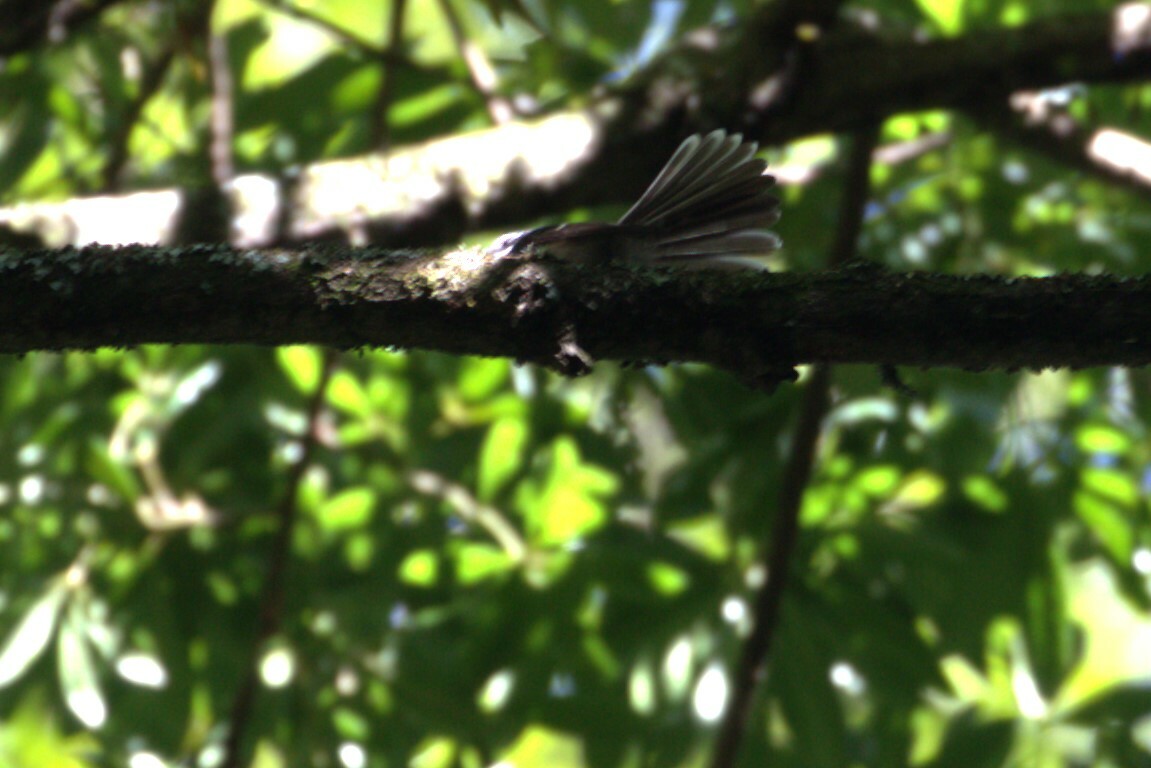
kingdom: Animalia
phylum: Chordata
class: Aves
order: Passeriformes
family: Rhipiduridae
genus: Rhipidura
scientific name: Rhipidura albiscapa
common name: Grey fantail
